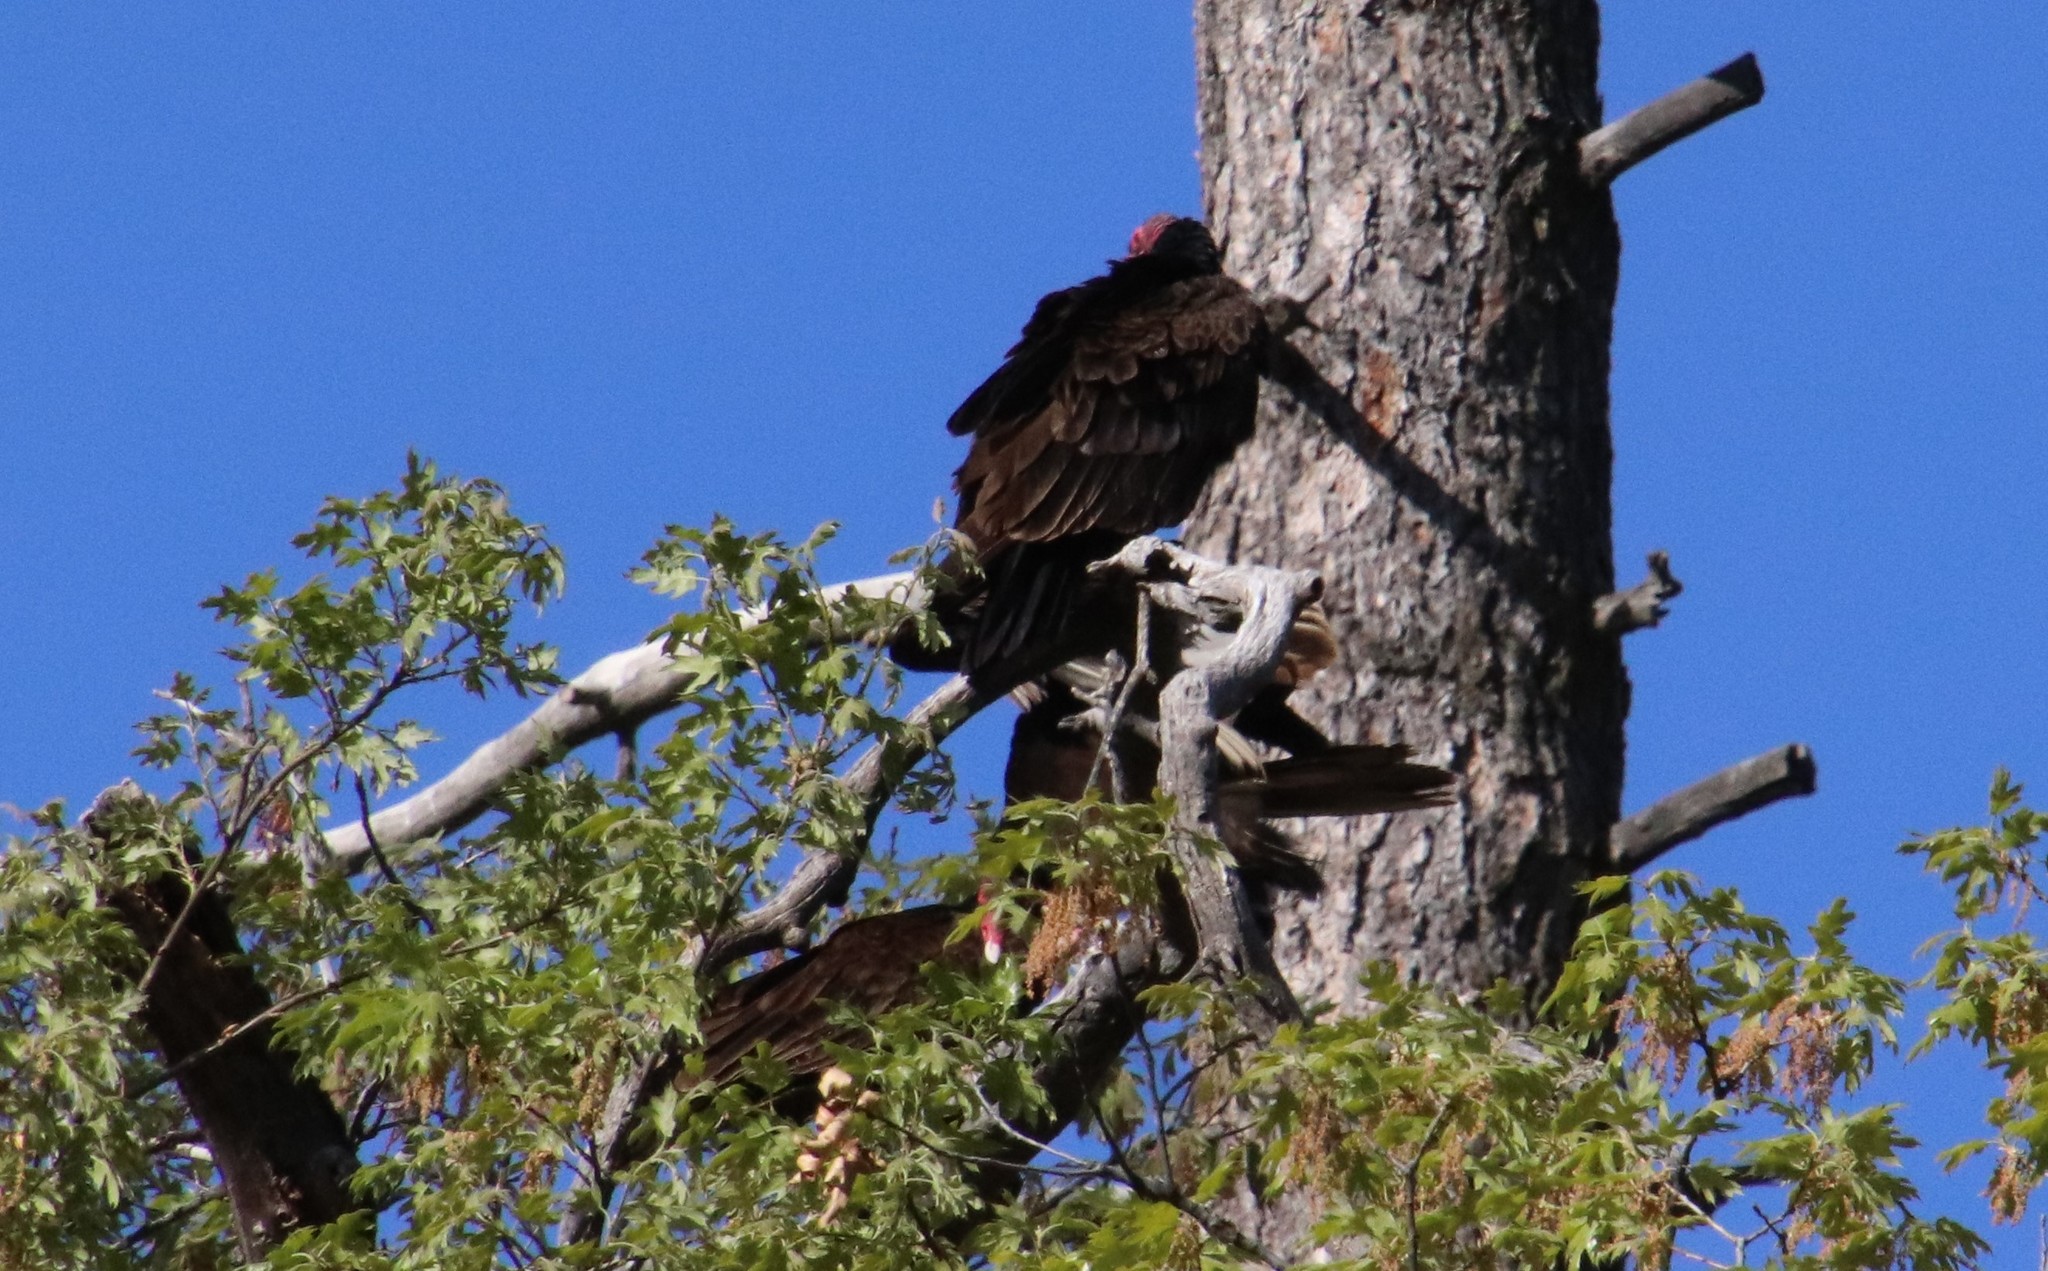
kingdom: Animalia
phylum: Chordata
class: Aves
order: Accipitriformes
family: Cathartidae
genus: Cathartes
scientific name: Cathartes aura
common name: Turkey vulture
